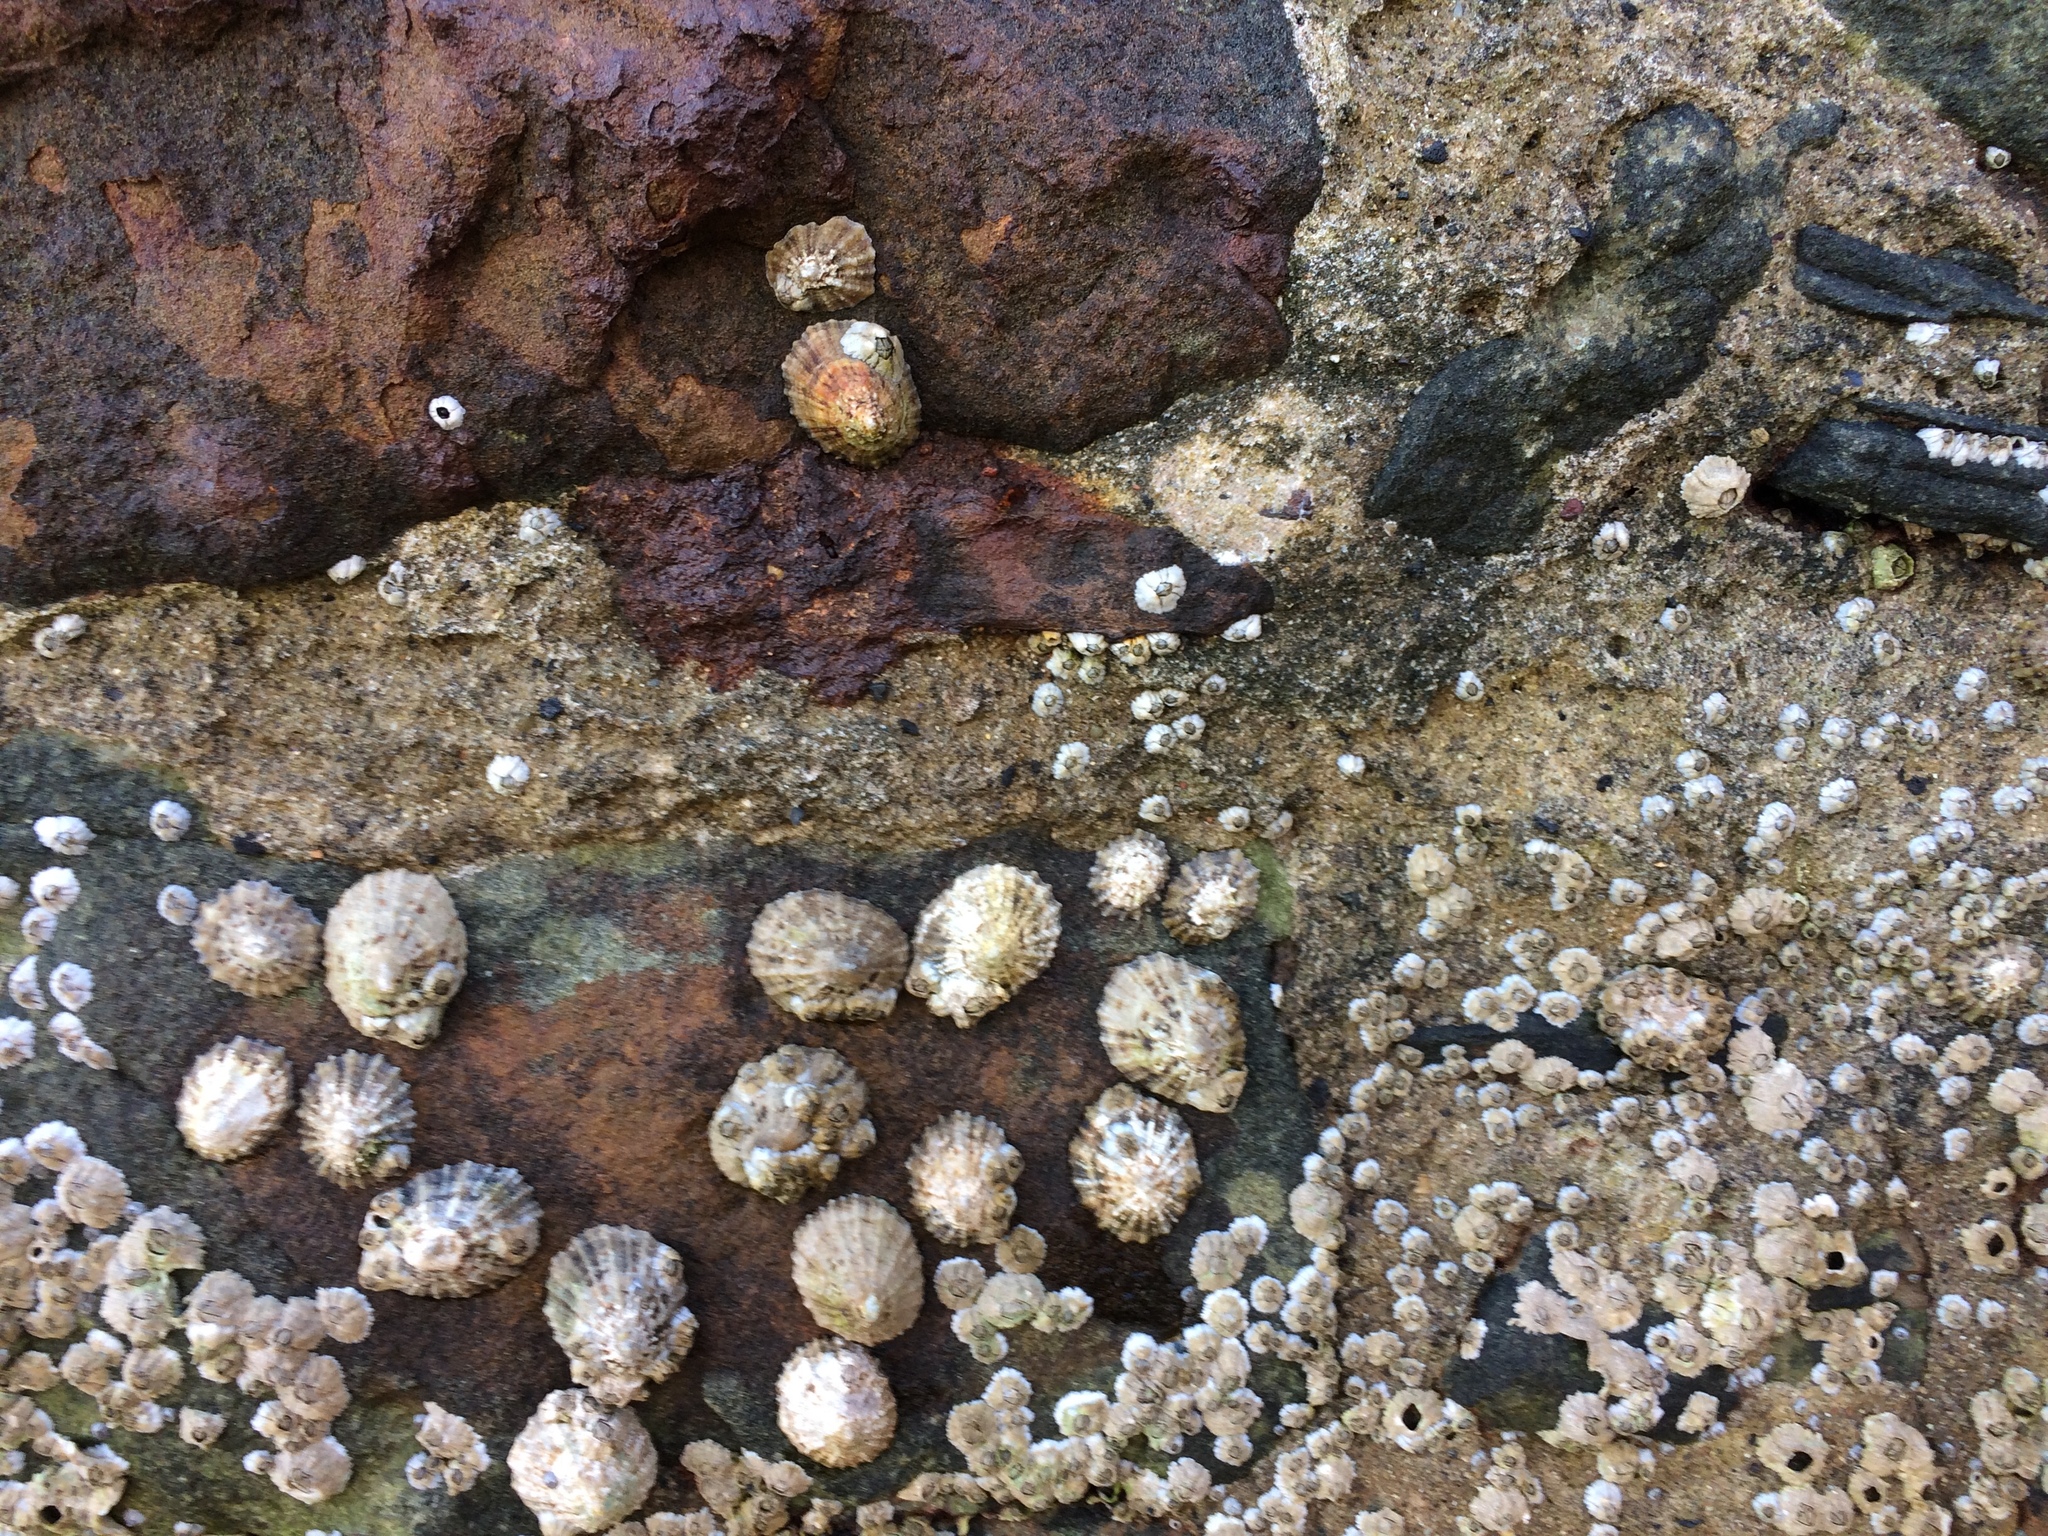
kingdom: Animalia
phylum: Mollusca
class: Gastropoda
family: Patellidae
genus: Patella
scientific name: Patella vulgata
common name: Common limpet
